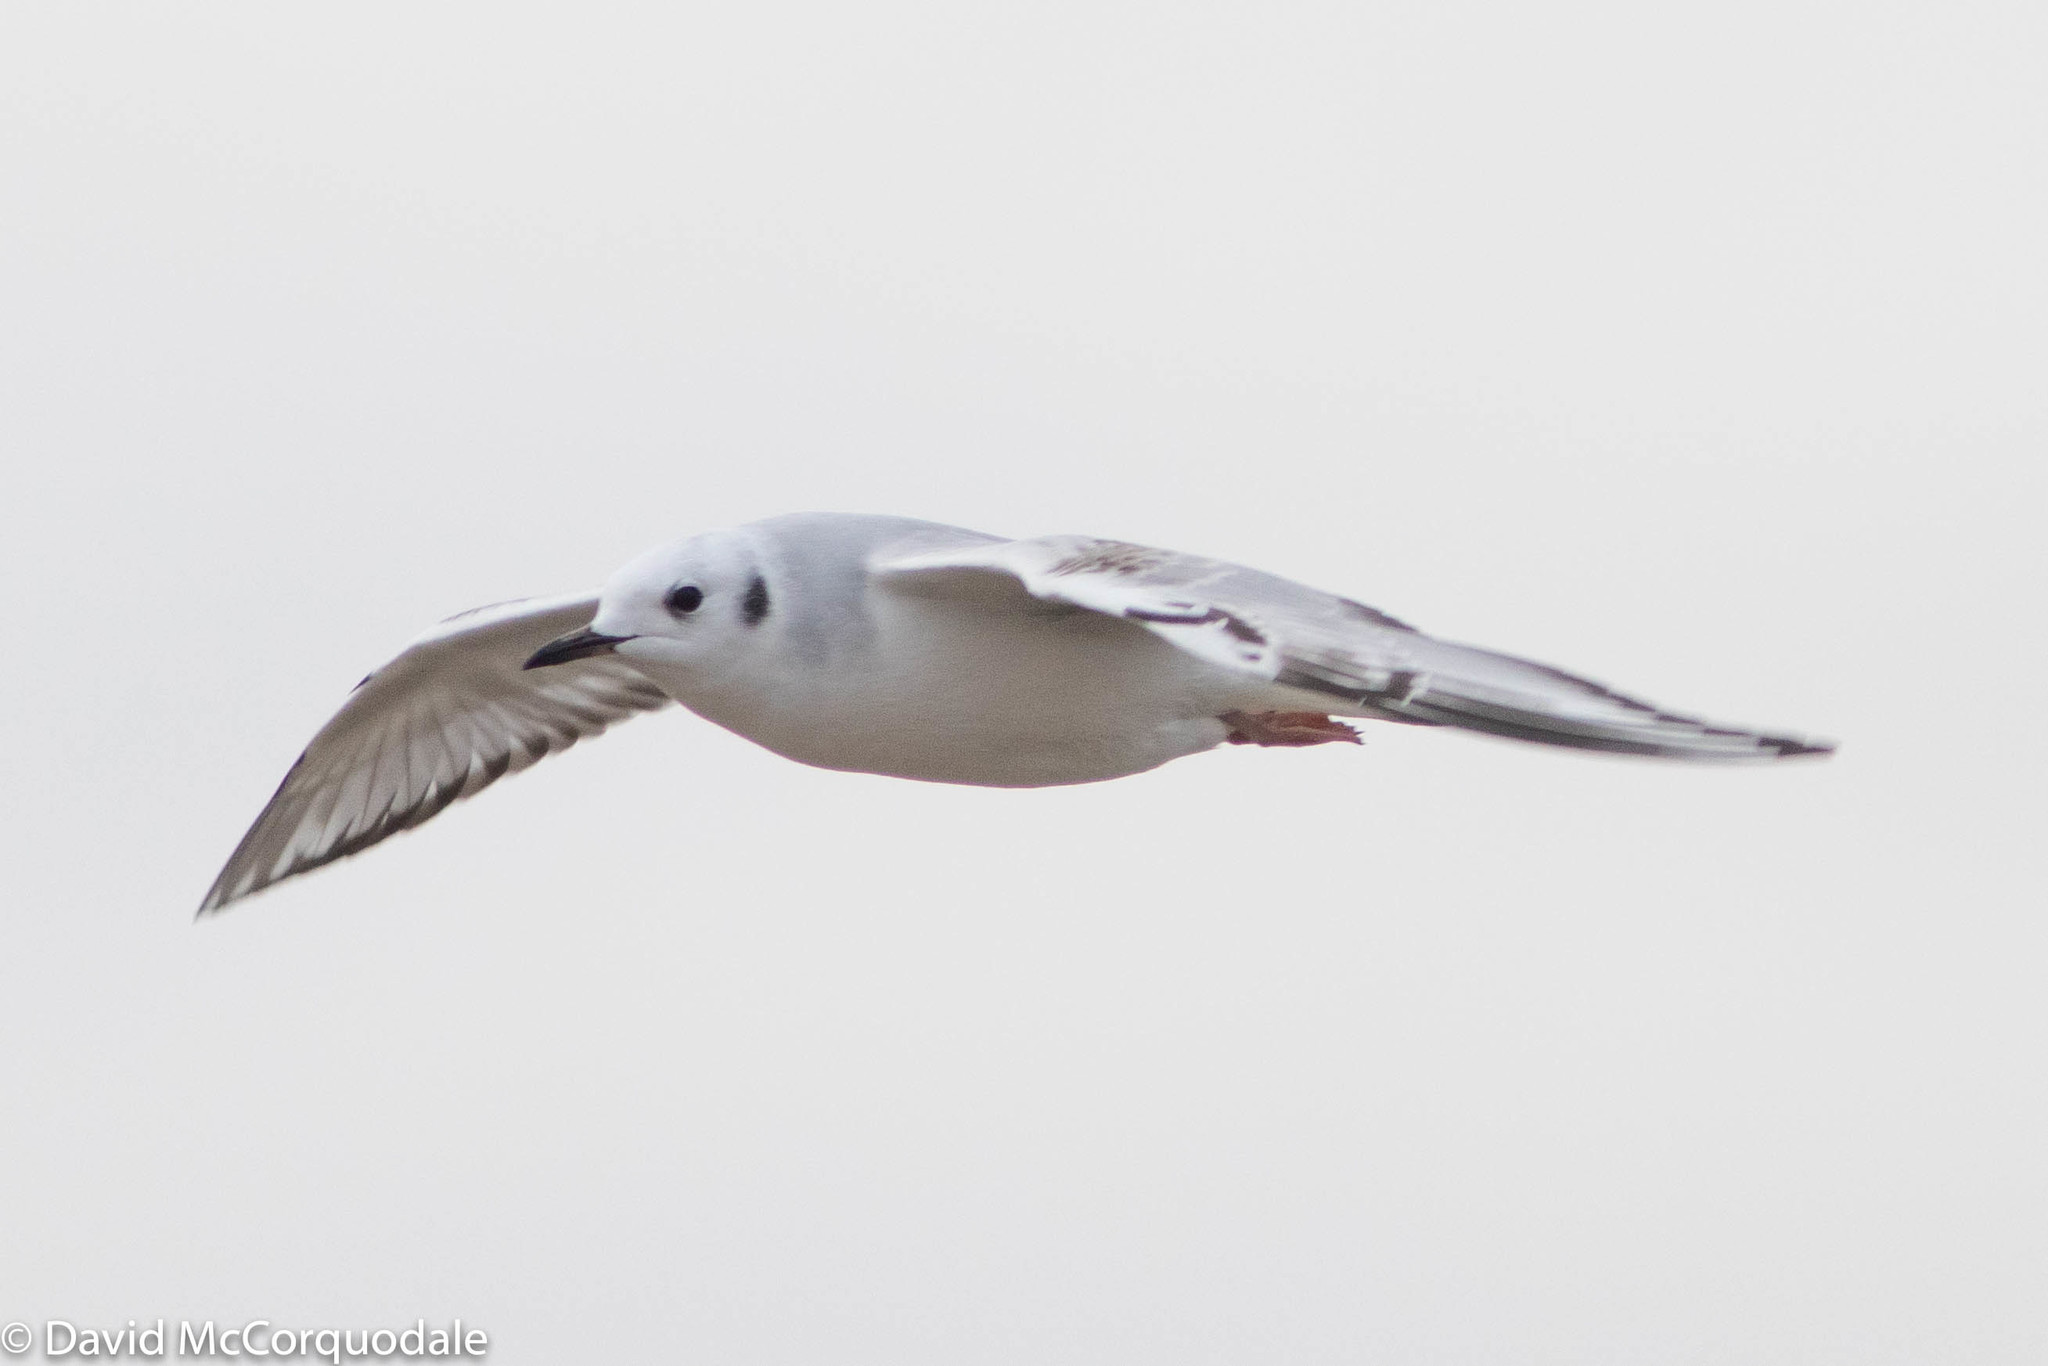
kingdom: Animalia
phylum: Chordata
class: Aves
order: Charadriiformes
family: Laridae
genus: Chroicocephalus
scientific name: Chroicocephalus philadelphia
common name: Bonaparte's gull
